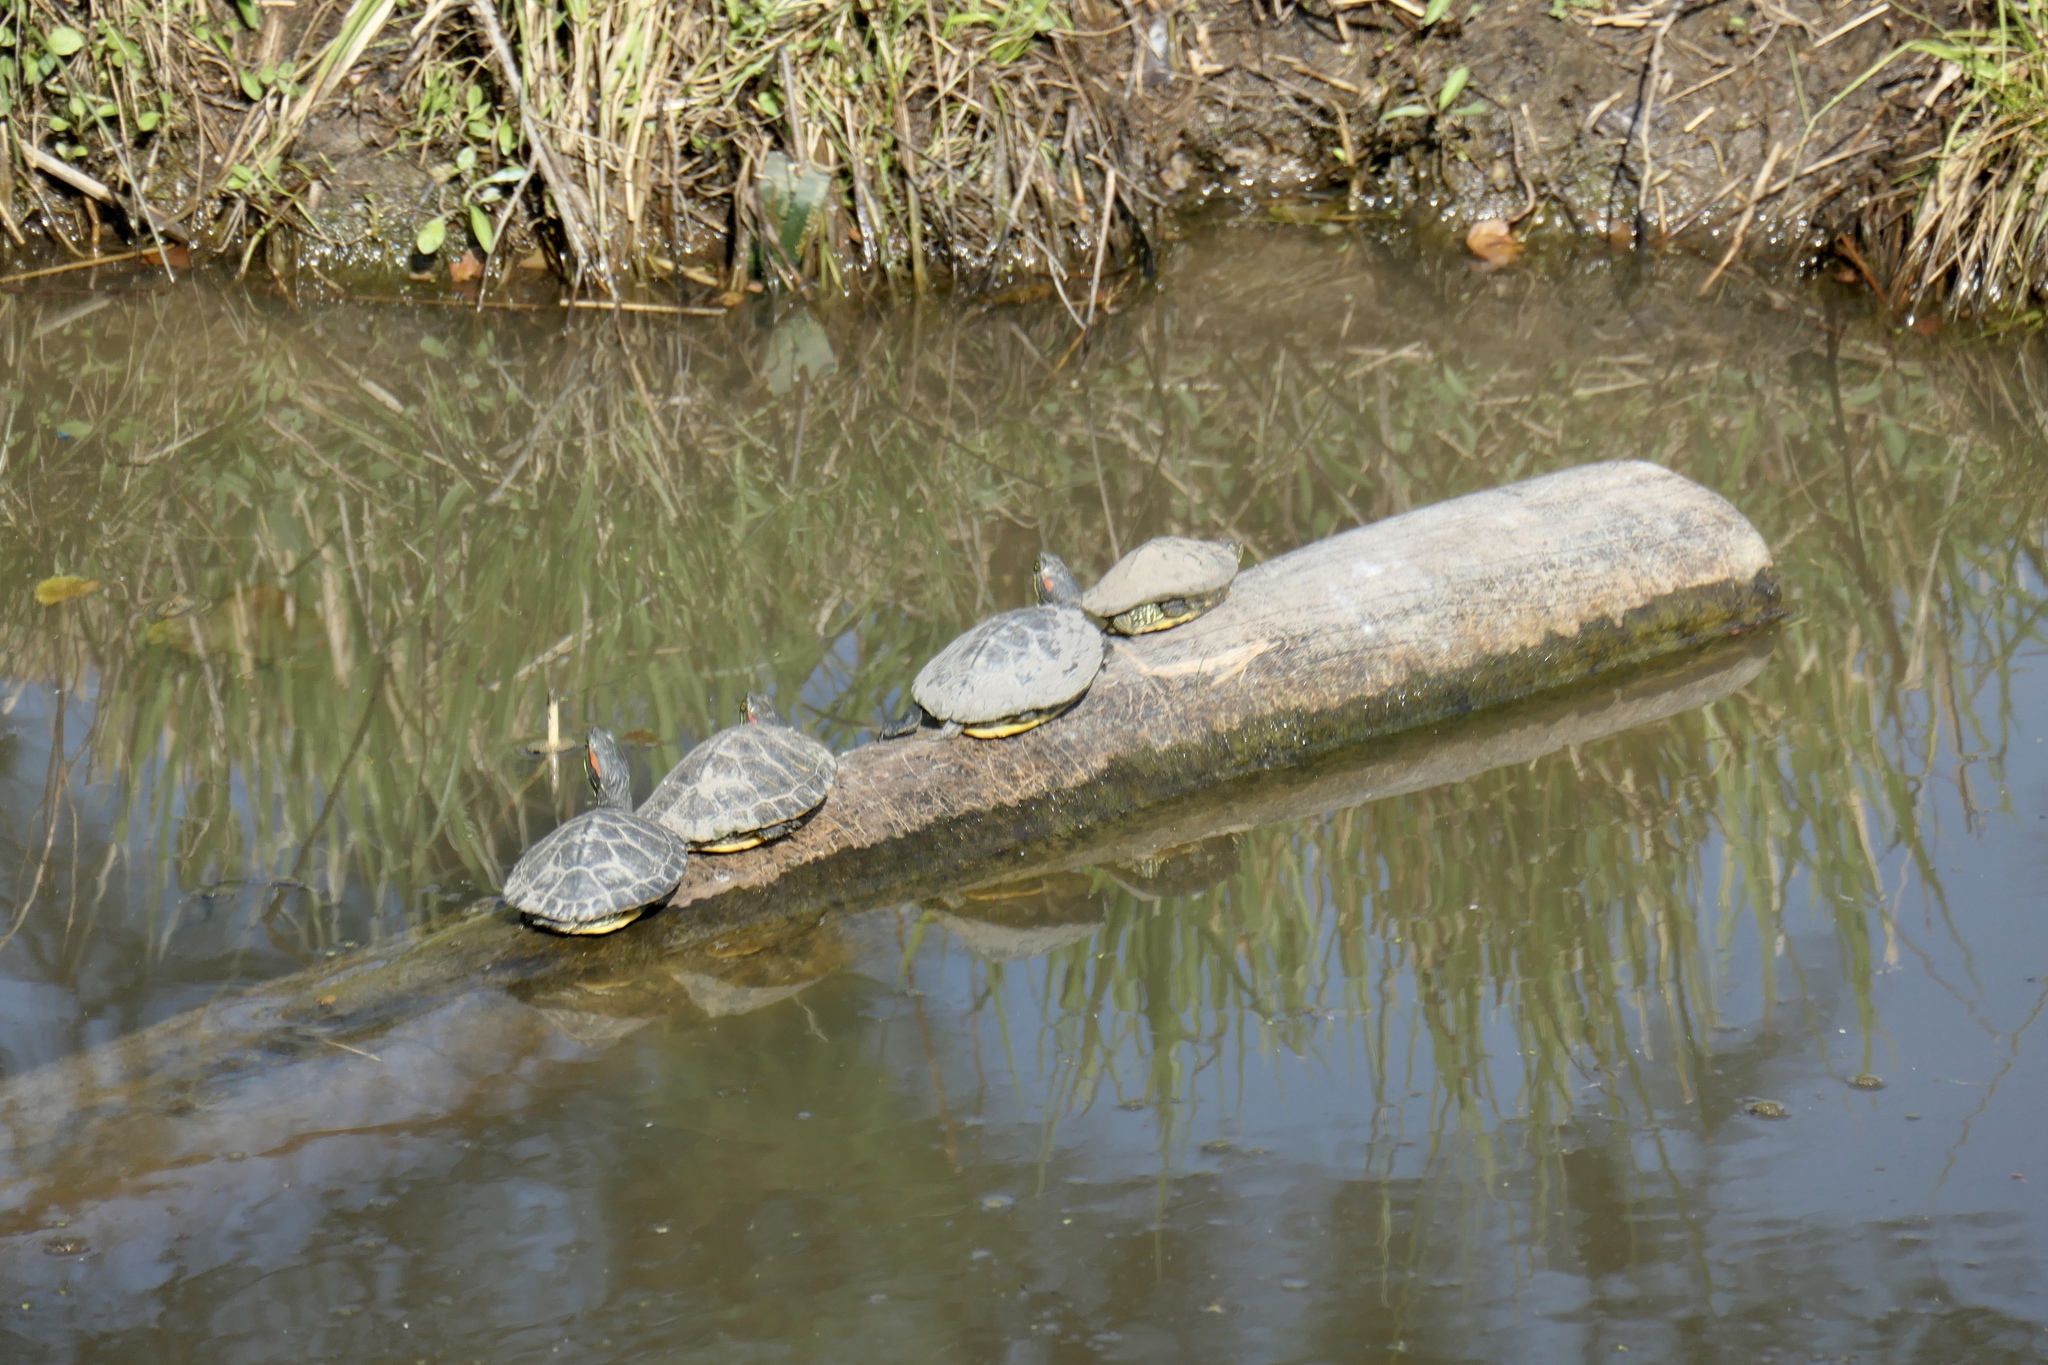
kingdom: Animalia
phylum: Chordata
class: Testudines
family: Emydidae
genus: Trachemys
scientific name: Trachemys scripta
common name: Slider
